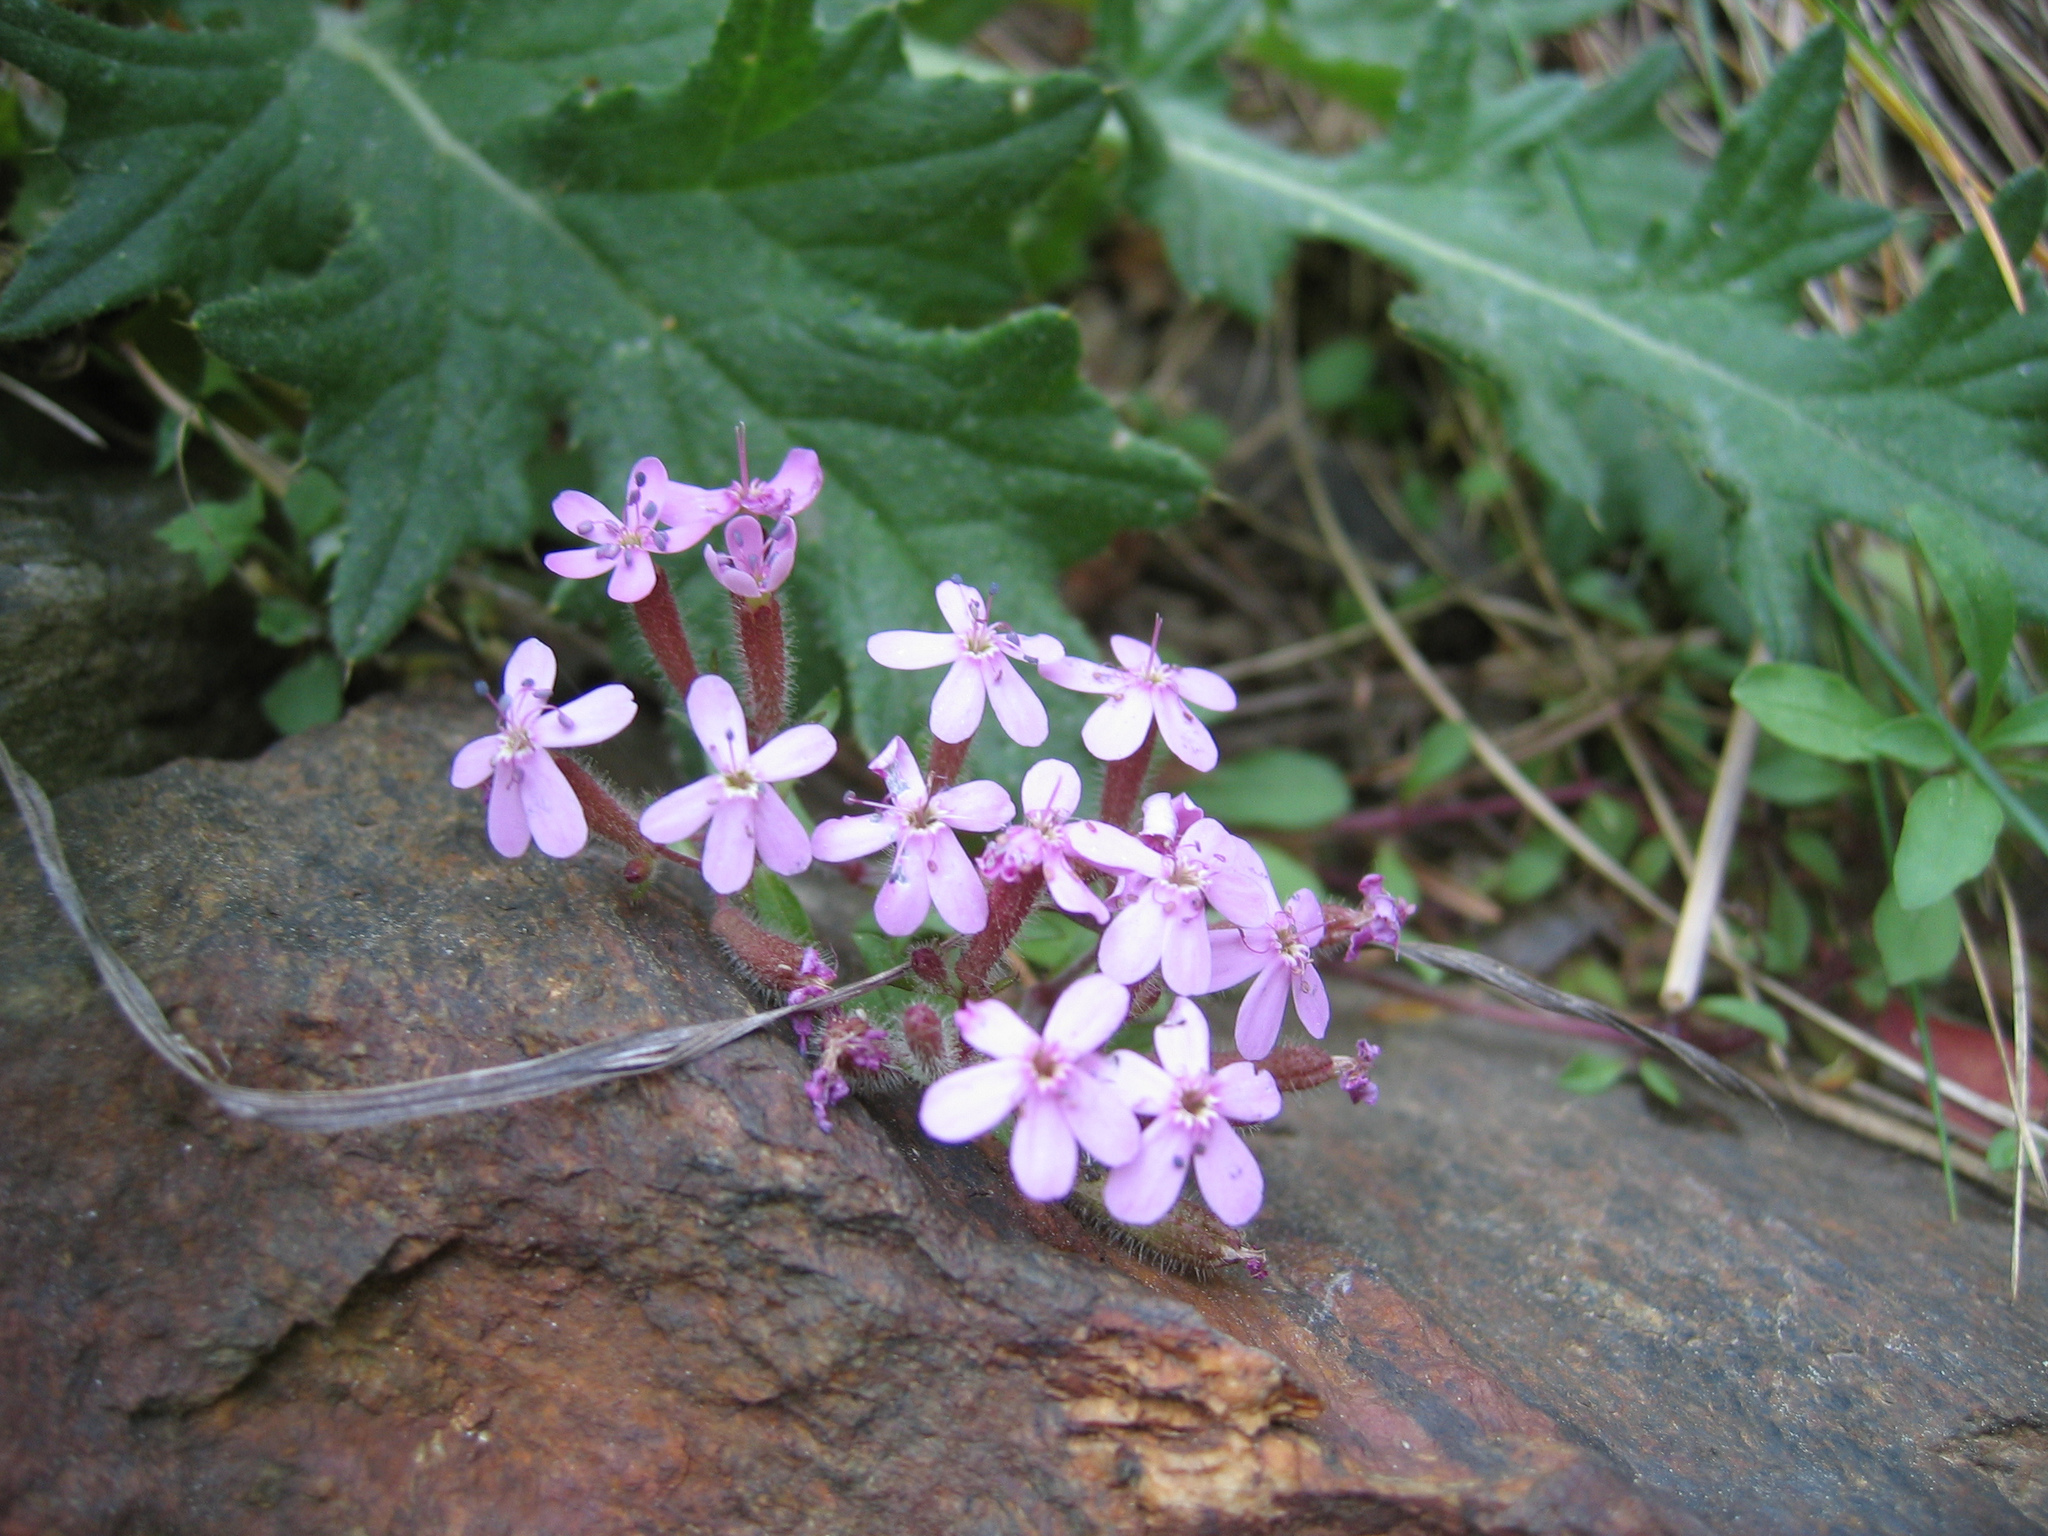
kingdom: Plantae
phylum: Tracheophyta
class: Magnoliopsida
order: Caryophyllales
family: Caryophyllaceae
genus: Saponaria
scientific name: Saponaria ocymoides
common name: Rock soapwort
